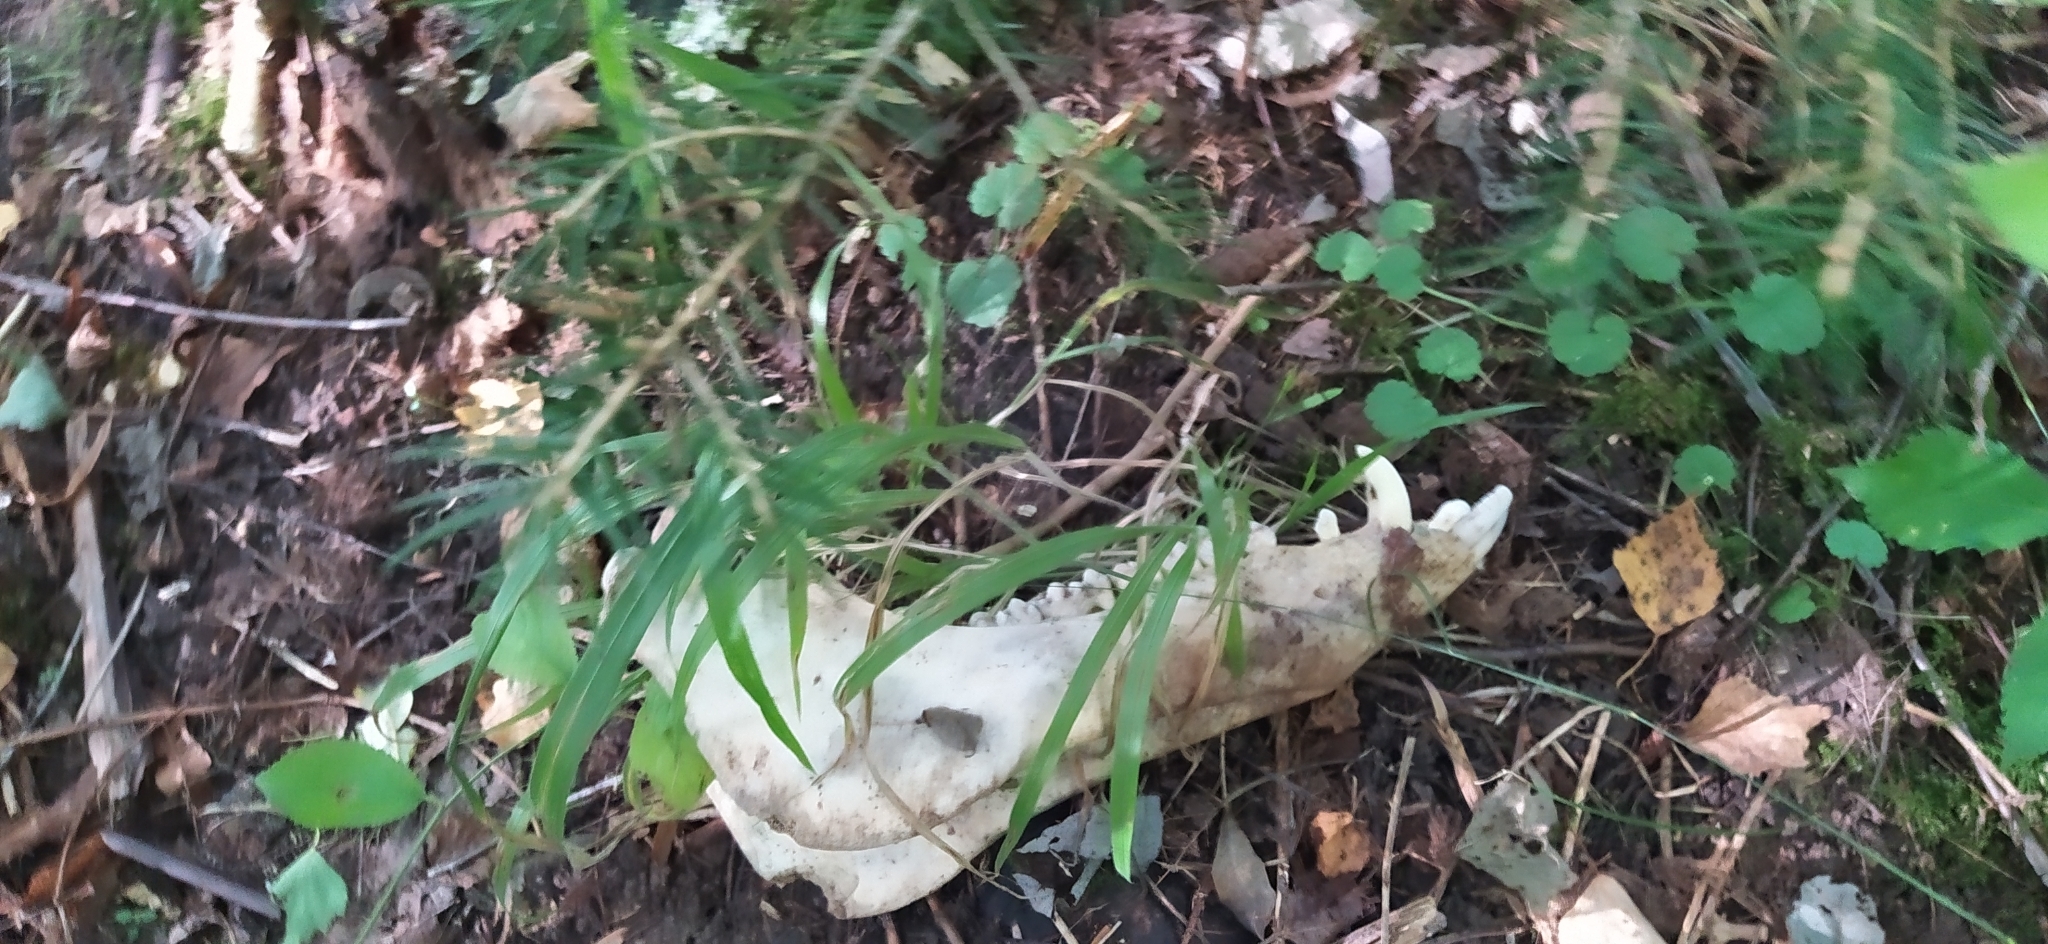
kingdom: Animalia
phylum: Chordata
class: Mammalia
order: Artiodactyla
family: Suidae
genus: Sus
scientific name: Sus scrofa
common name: Wild boar
